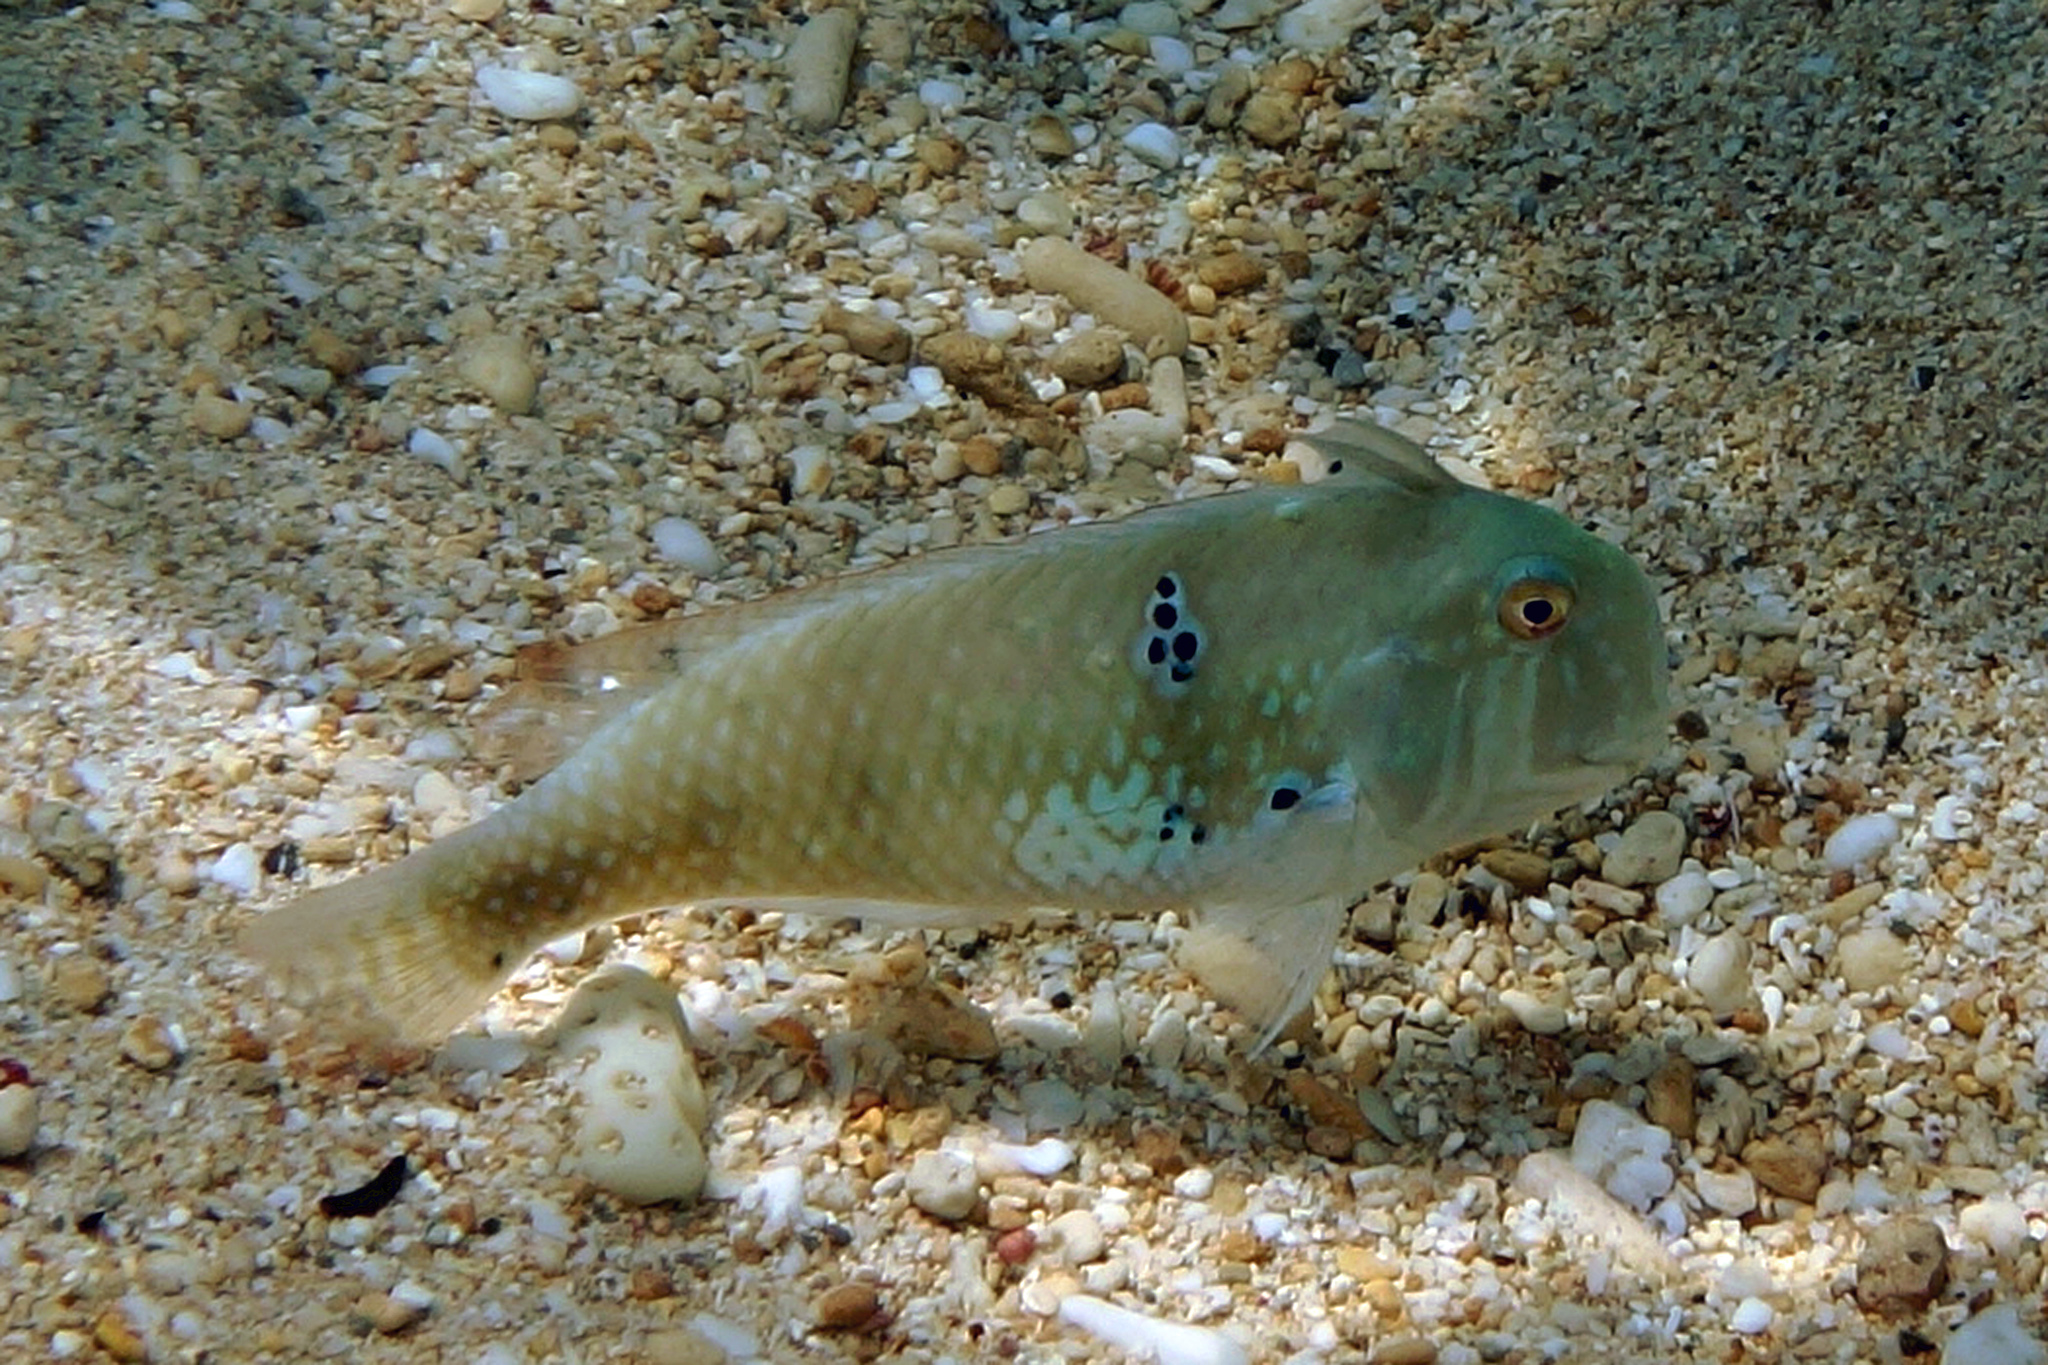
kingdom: Animalia
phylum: Chordata
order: Perciformes
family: Labridae
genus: Iniistius
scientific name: Iniistius griffithsi
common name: Griffiths’ razor fish
